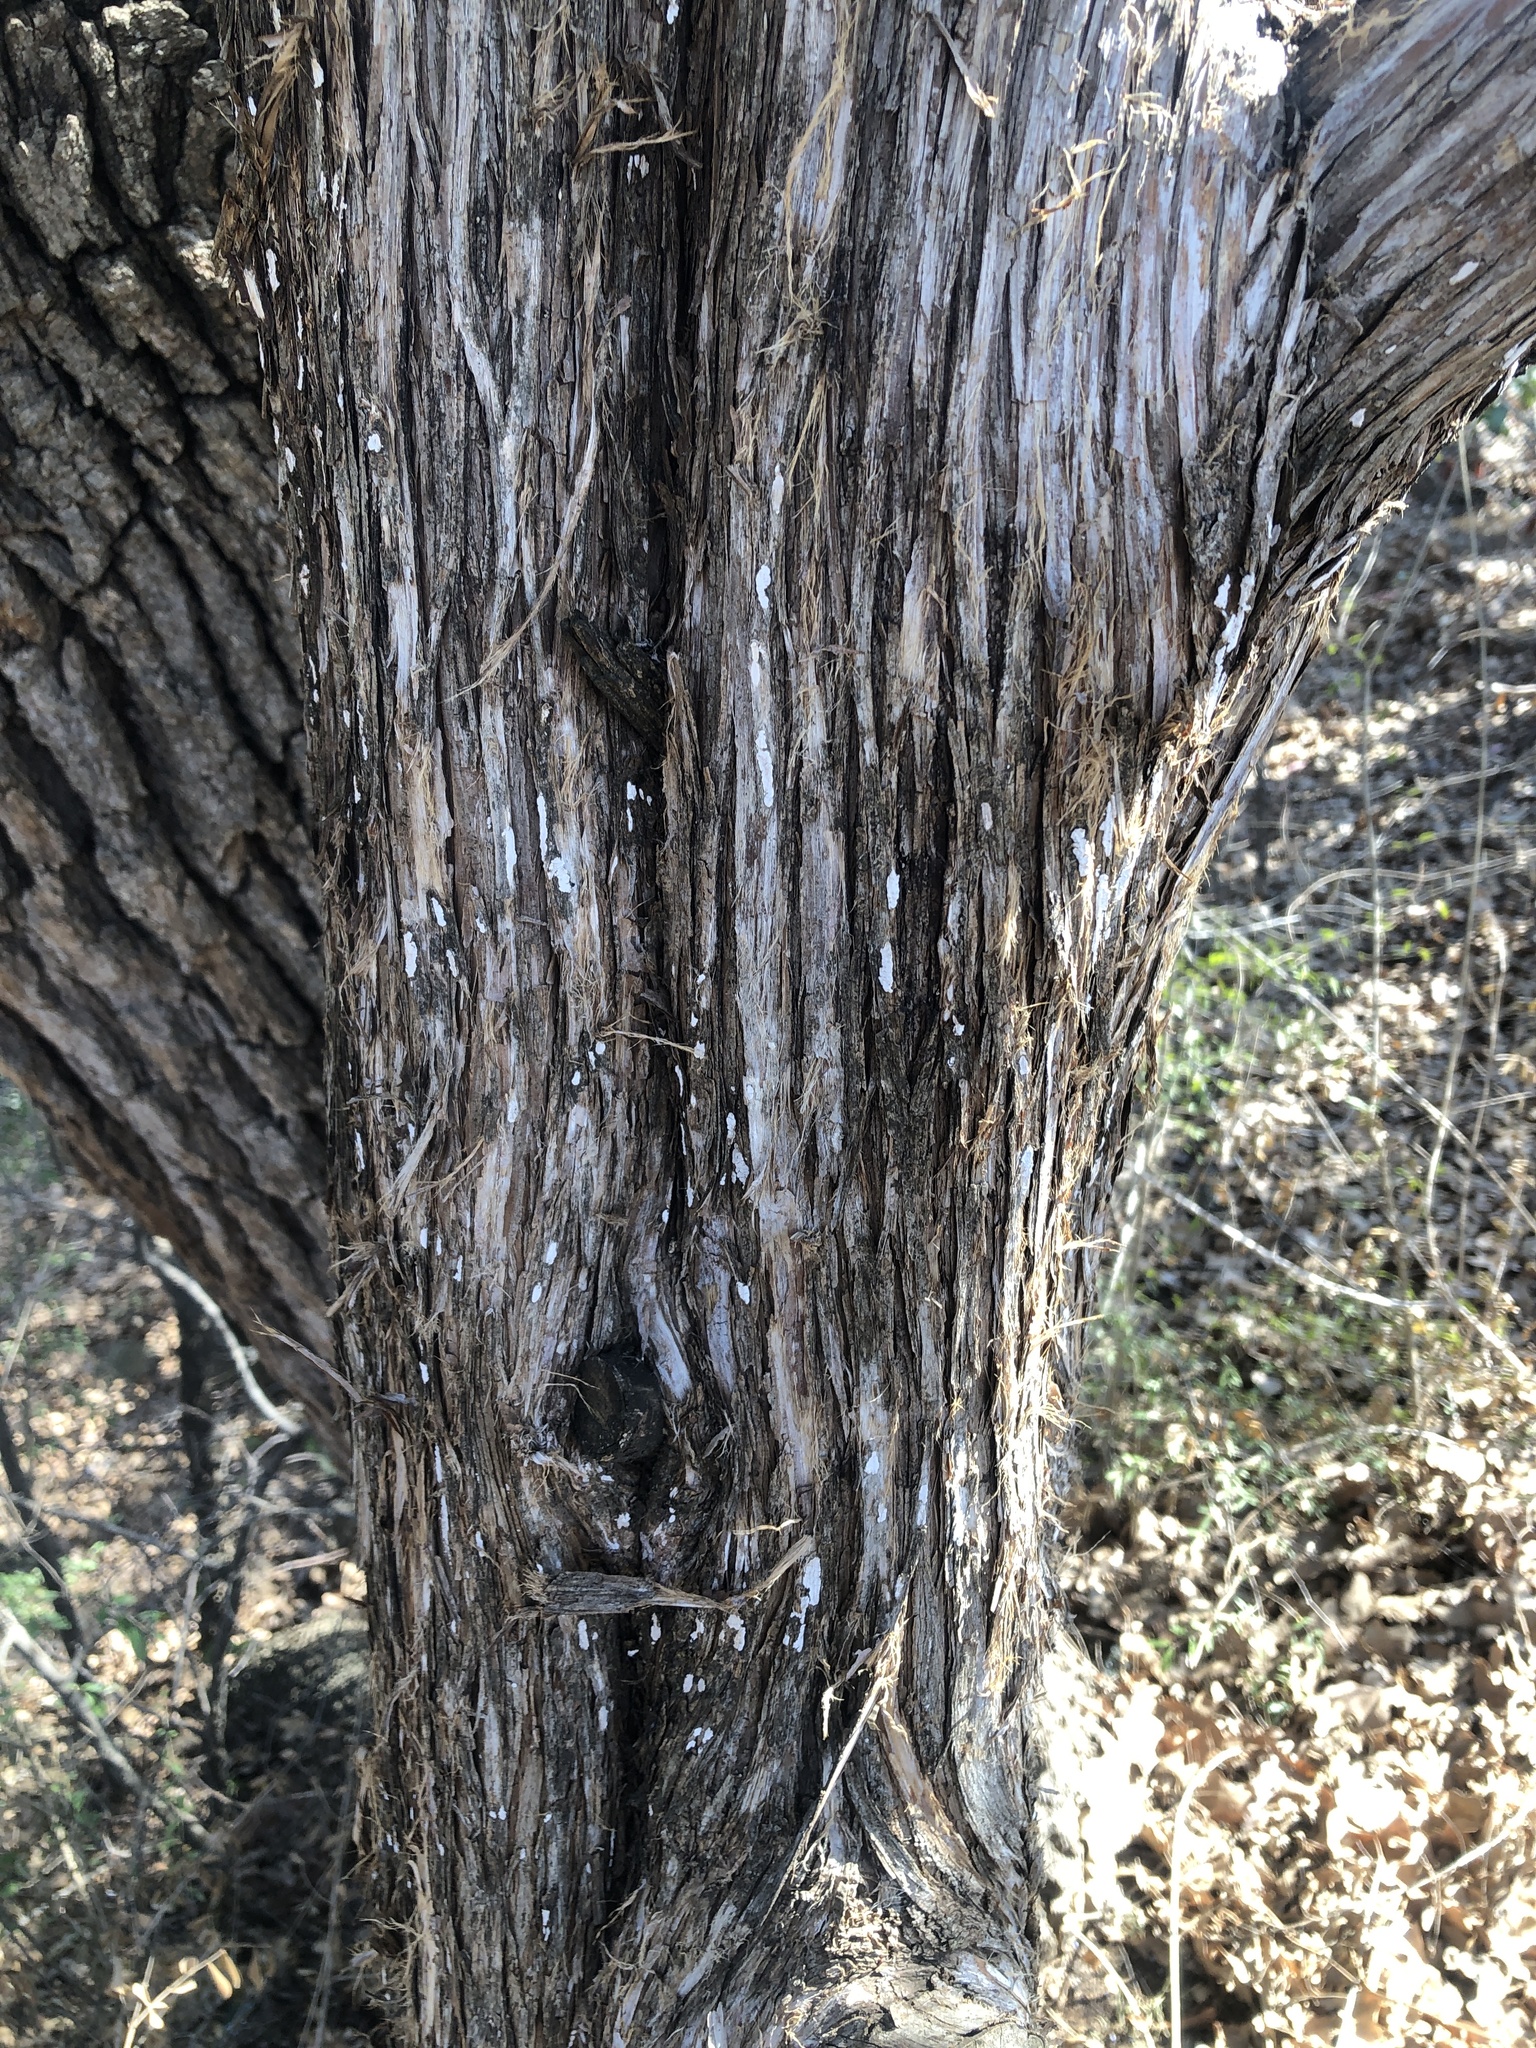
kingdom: Fungi
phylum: Basidiomycota
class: Agaricomycetes
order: Agaricales
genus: Dendrothele
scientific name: Dendrothele nivosa
